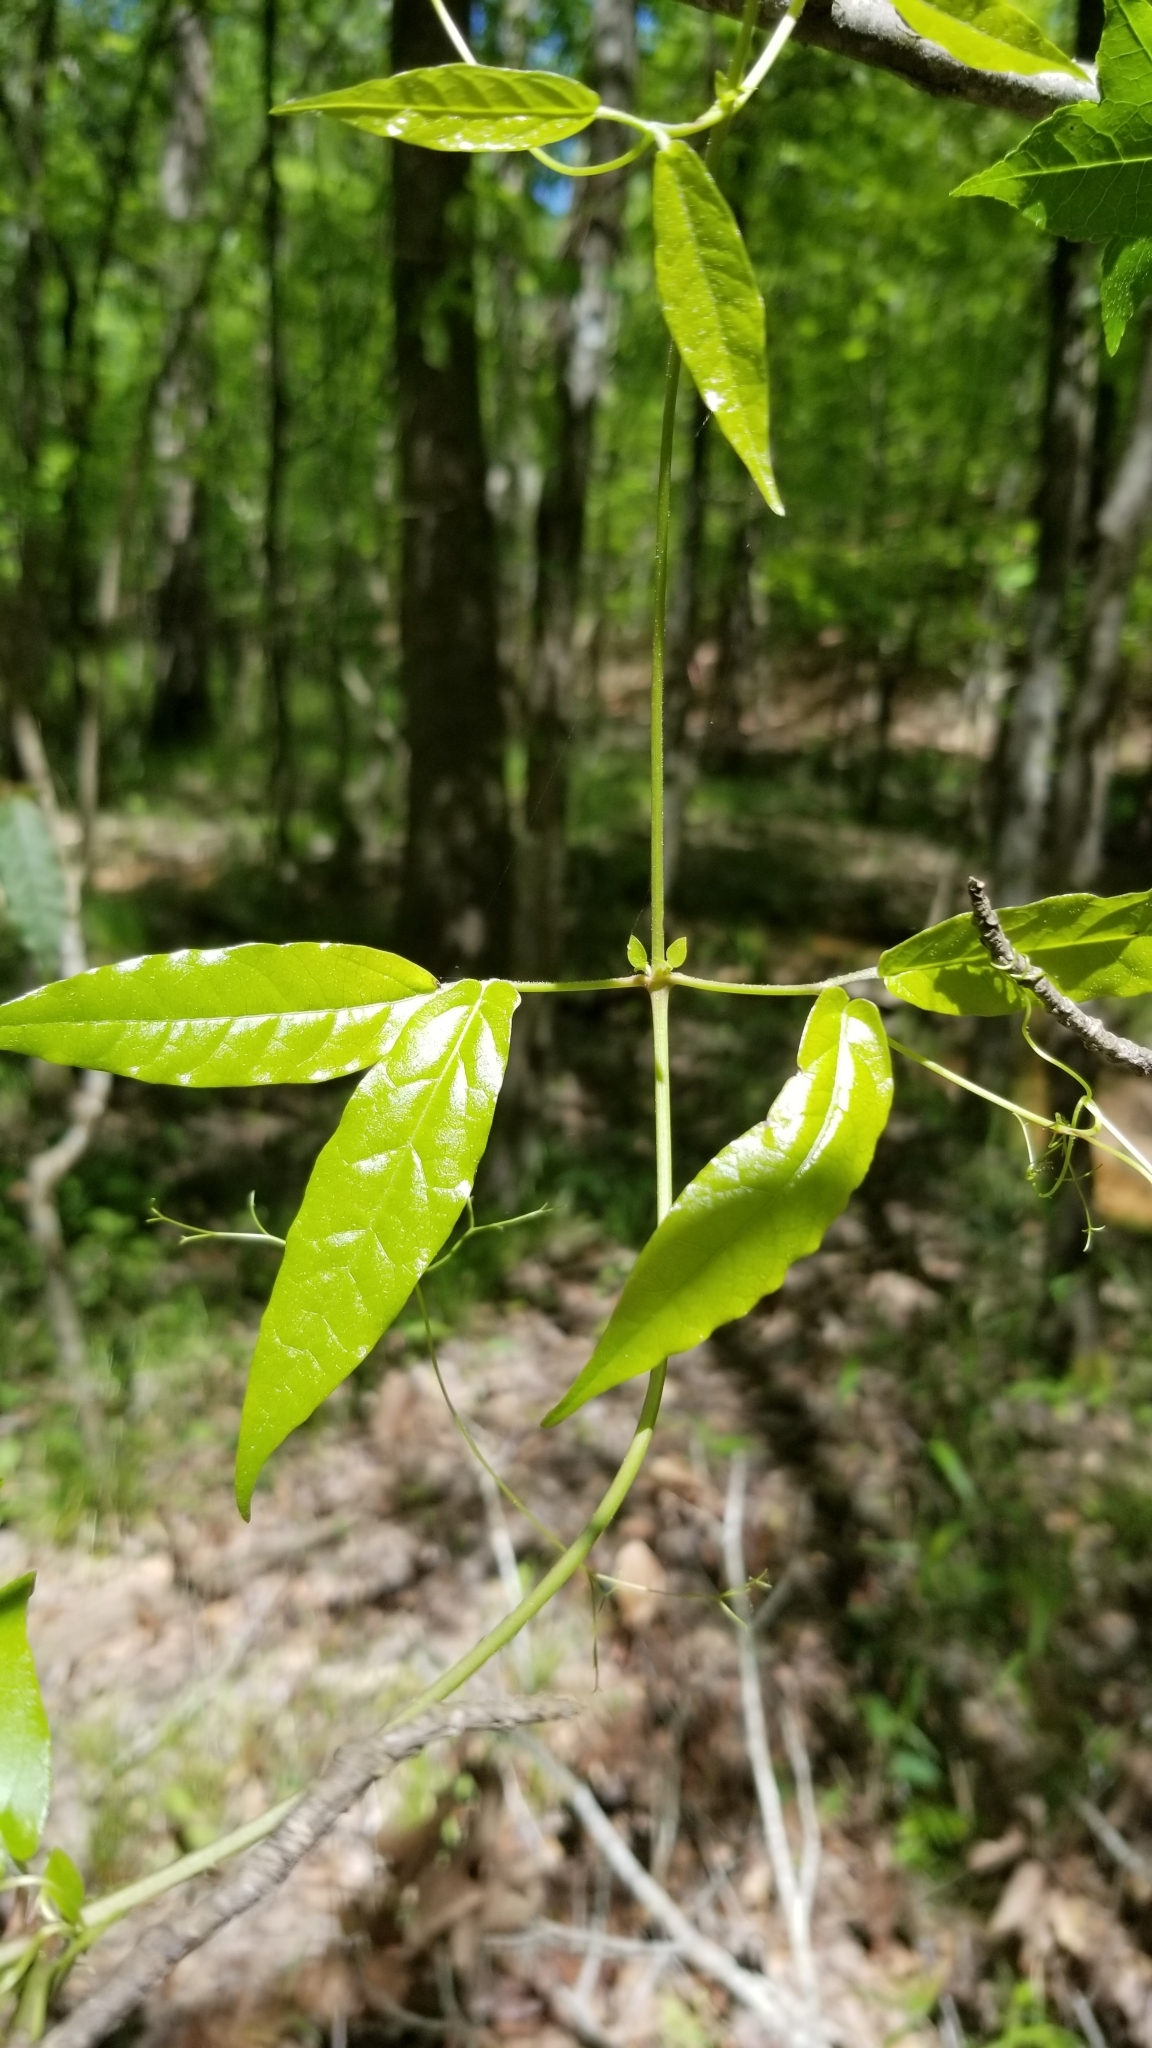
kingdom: Plantae
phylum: Tracheophyta
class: Magnoliopsida
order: Lamiales
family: Bignoniaceae
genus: Bignonia
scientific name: Bignonia capreolata
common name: Crossvine
